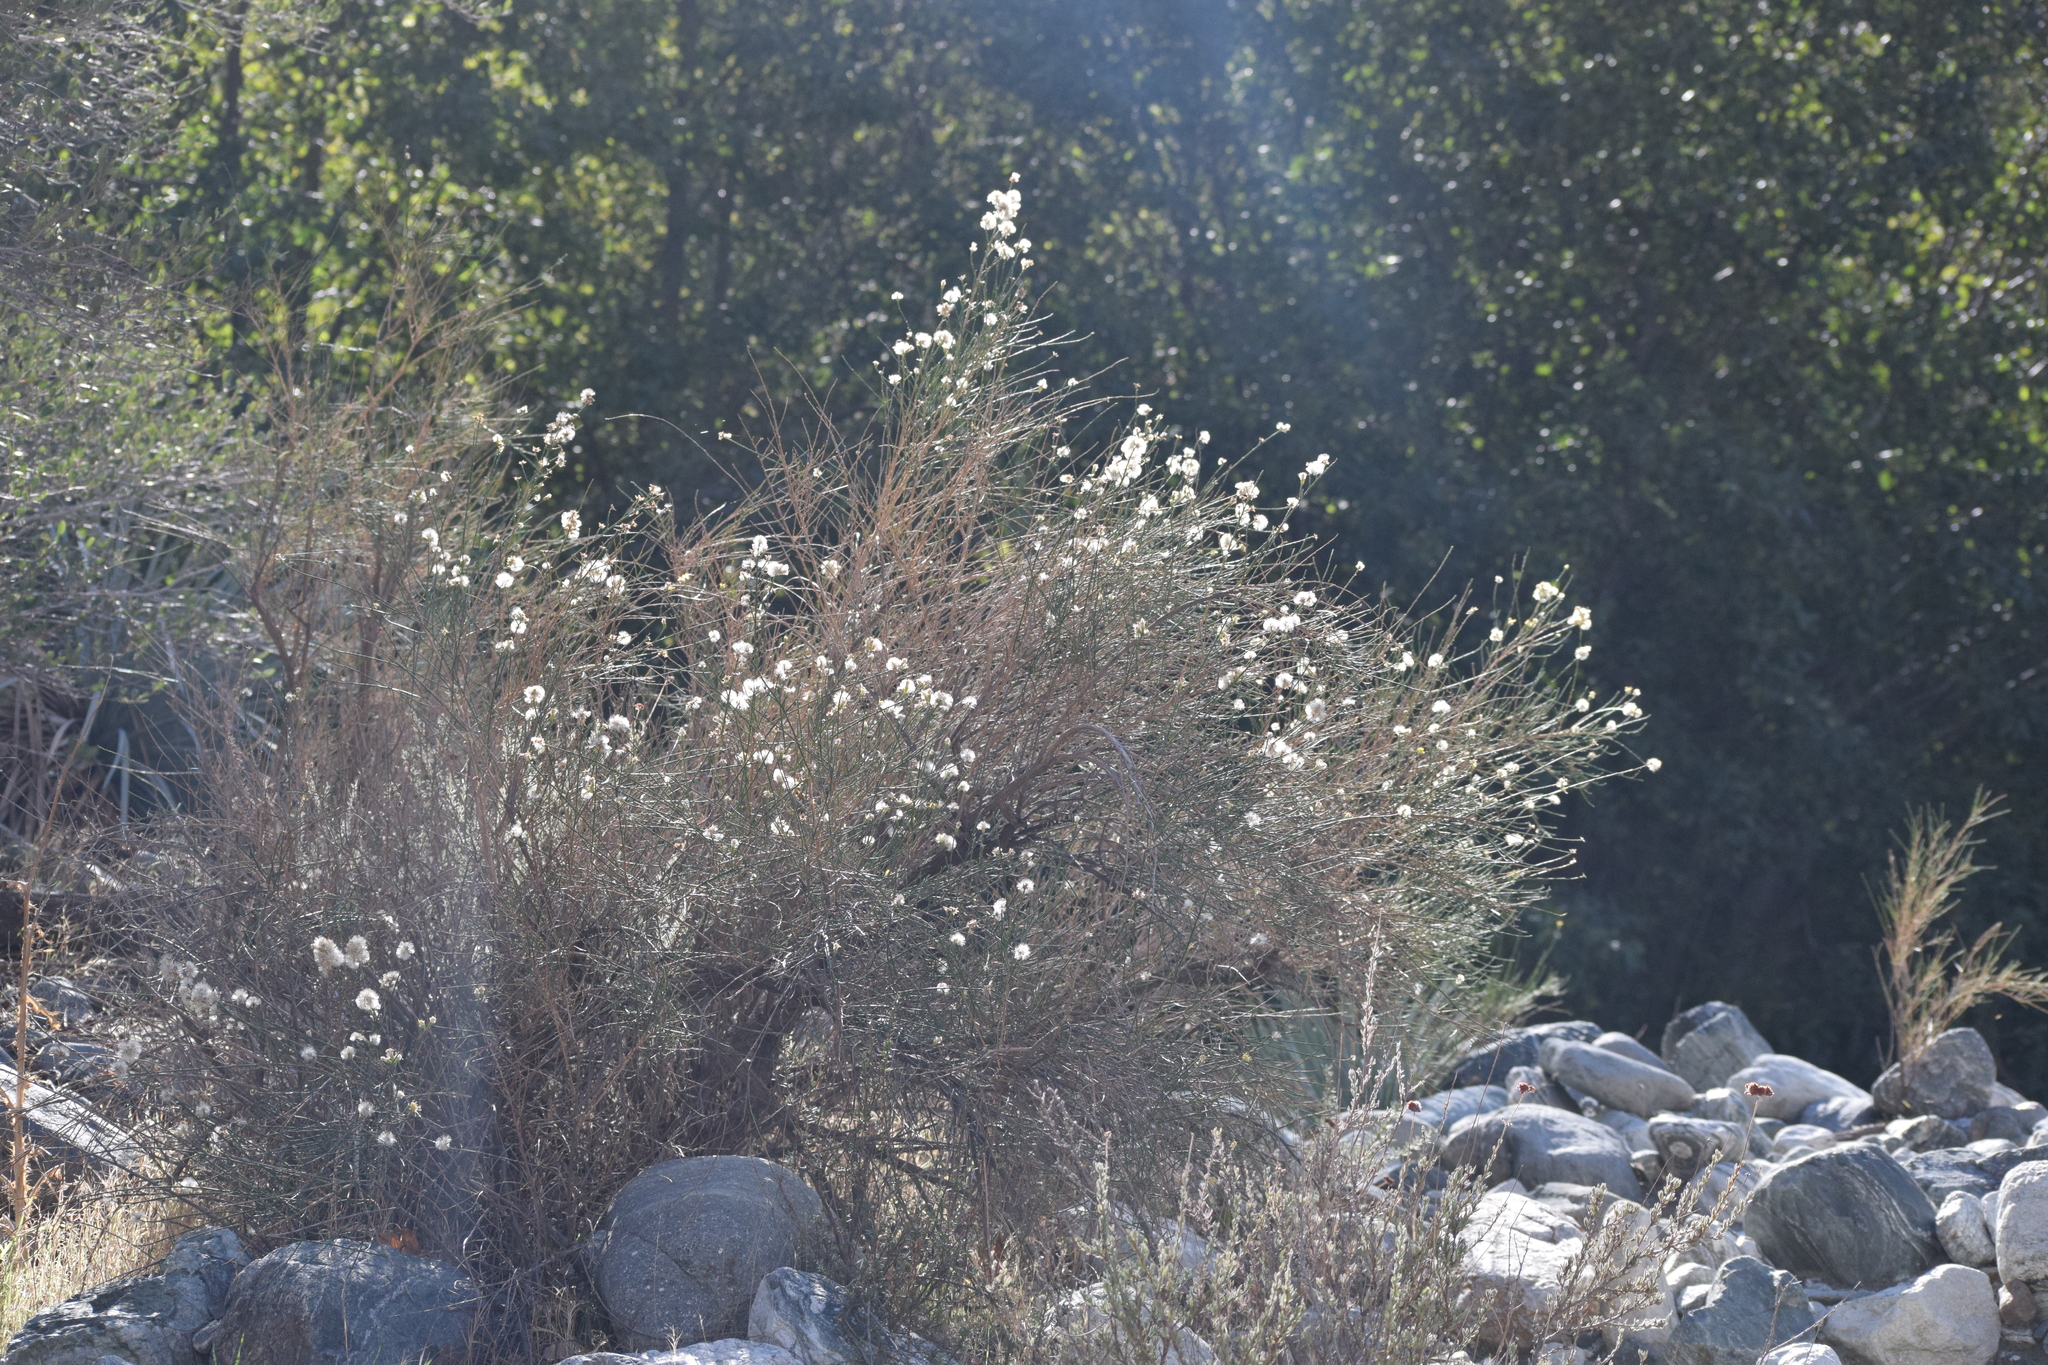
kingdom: Plantae
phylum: Tracheophyta
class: Magnoliopsida
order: Asterales
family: Asteraceae
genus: Lepidospartum
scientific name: Lepidospartum squamatum
